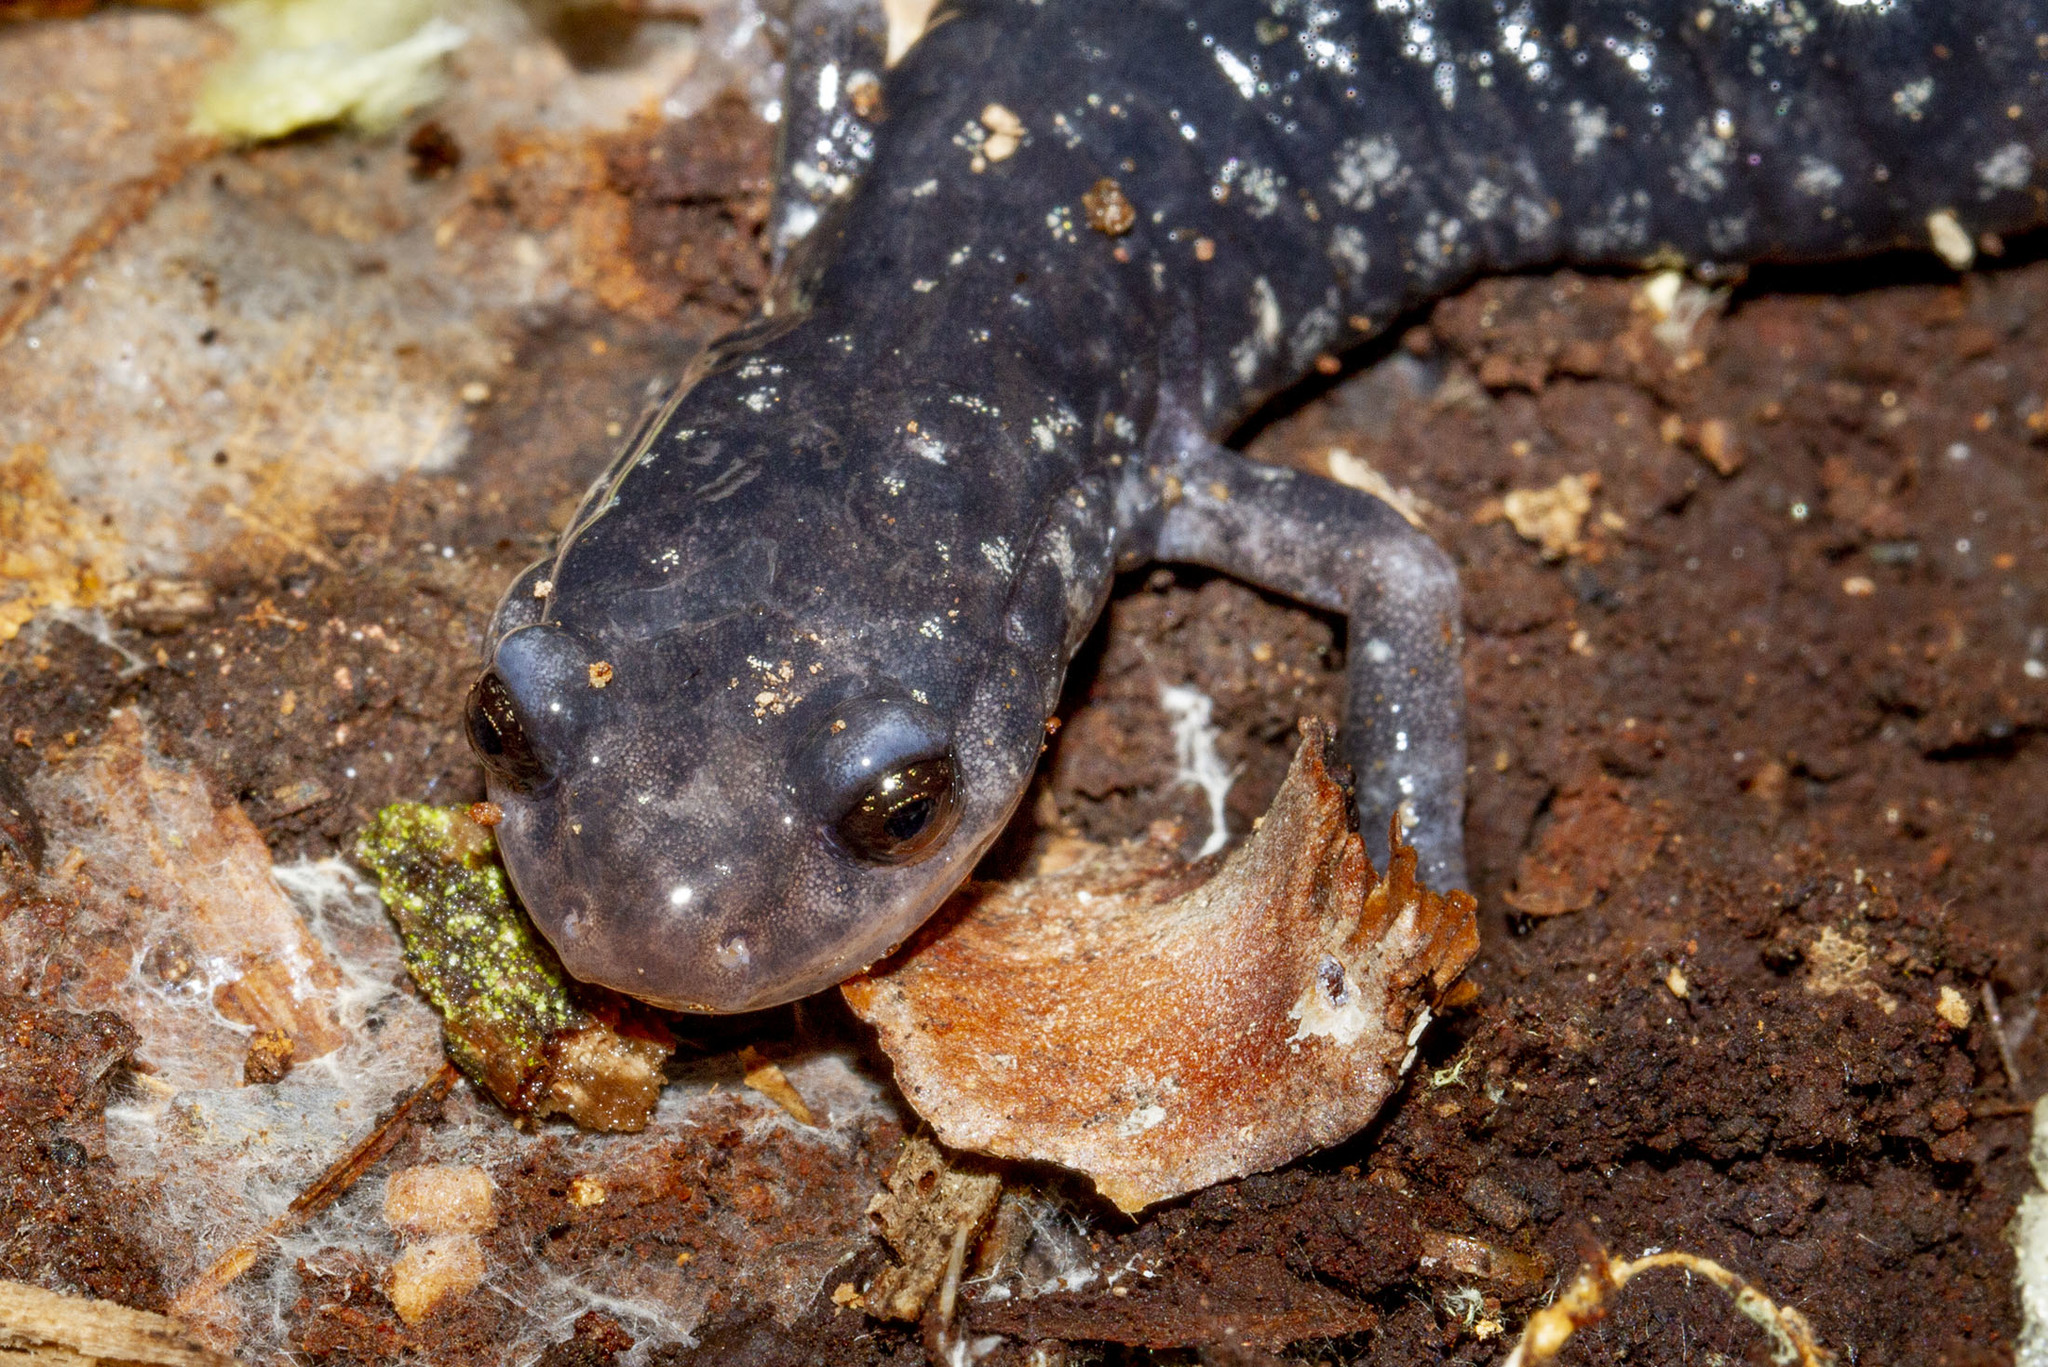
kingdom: Animalia
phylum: Chordata
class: Amphibia
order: Caudata
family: Plethodontidae
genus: Plethodon
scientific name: Plethodon glutinosus
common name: Northern slimy salamander
